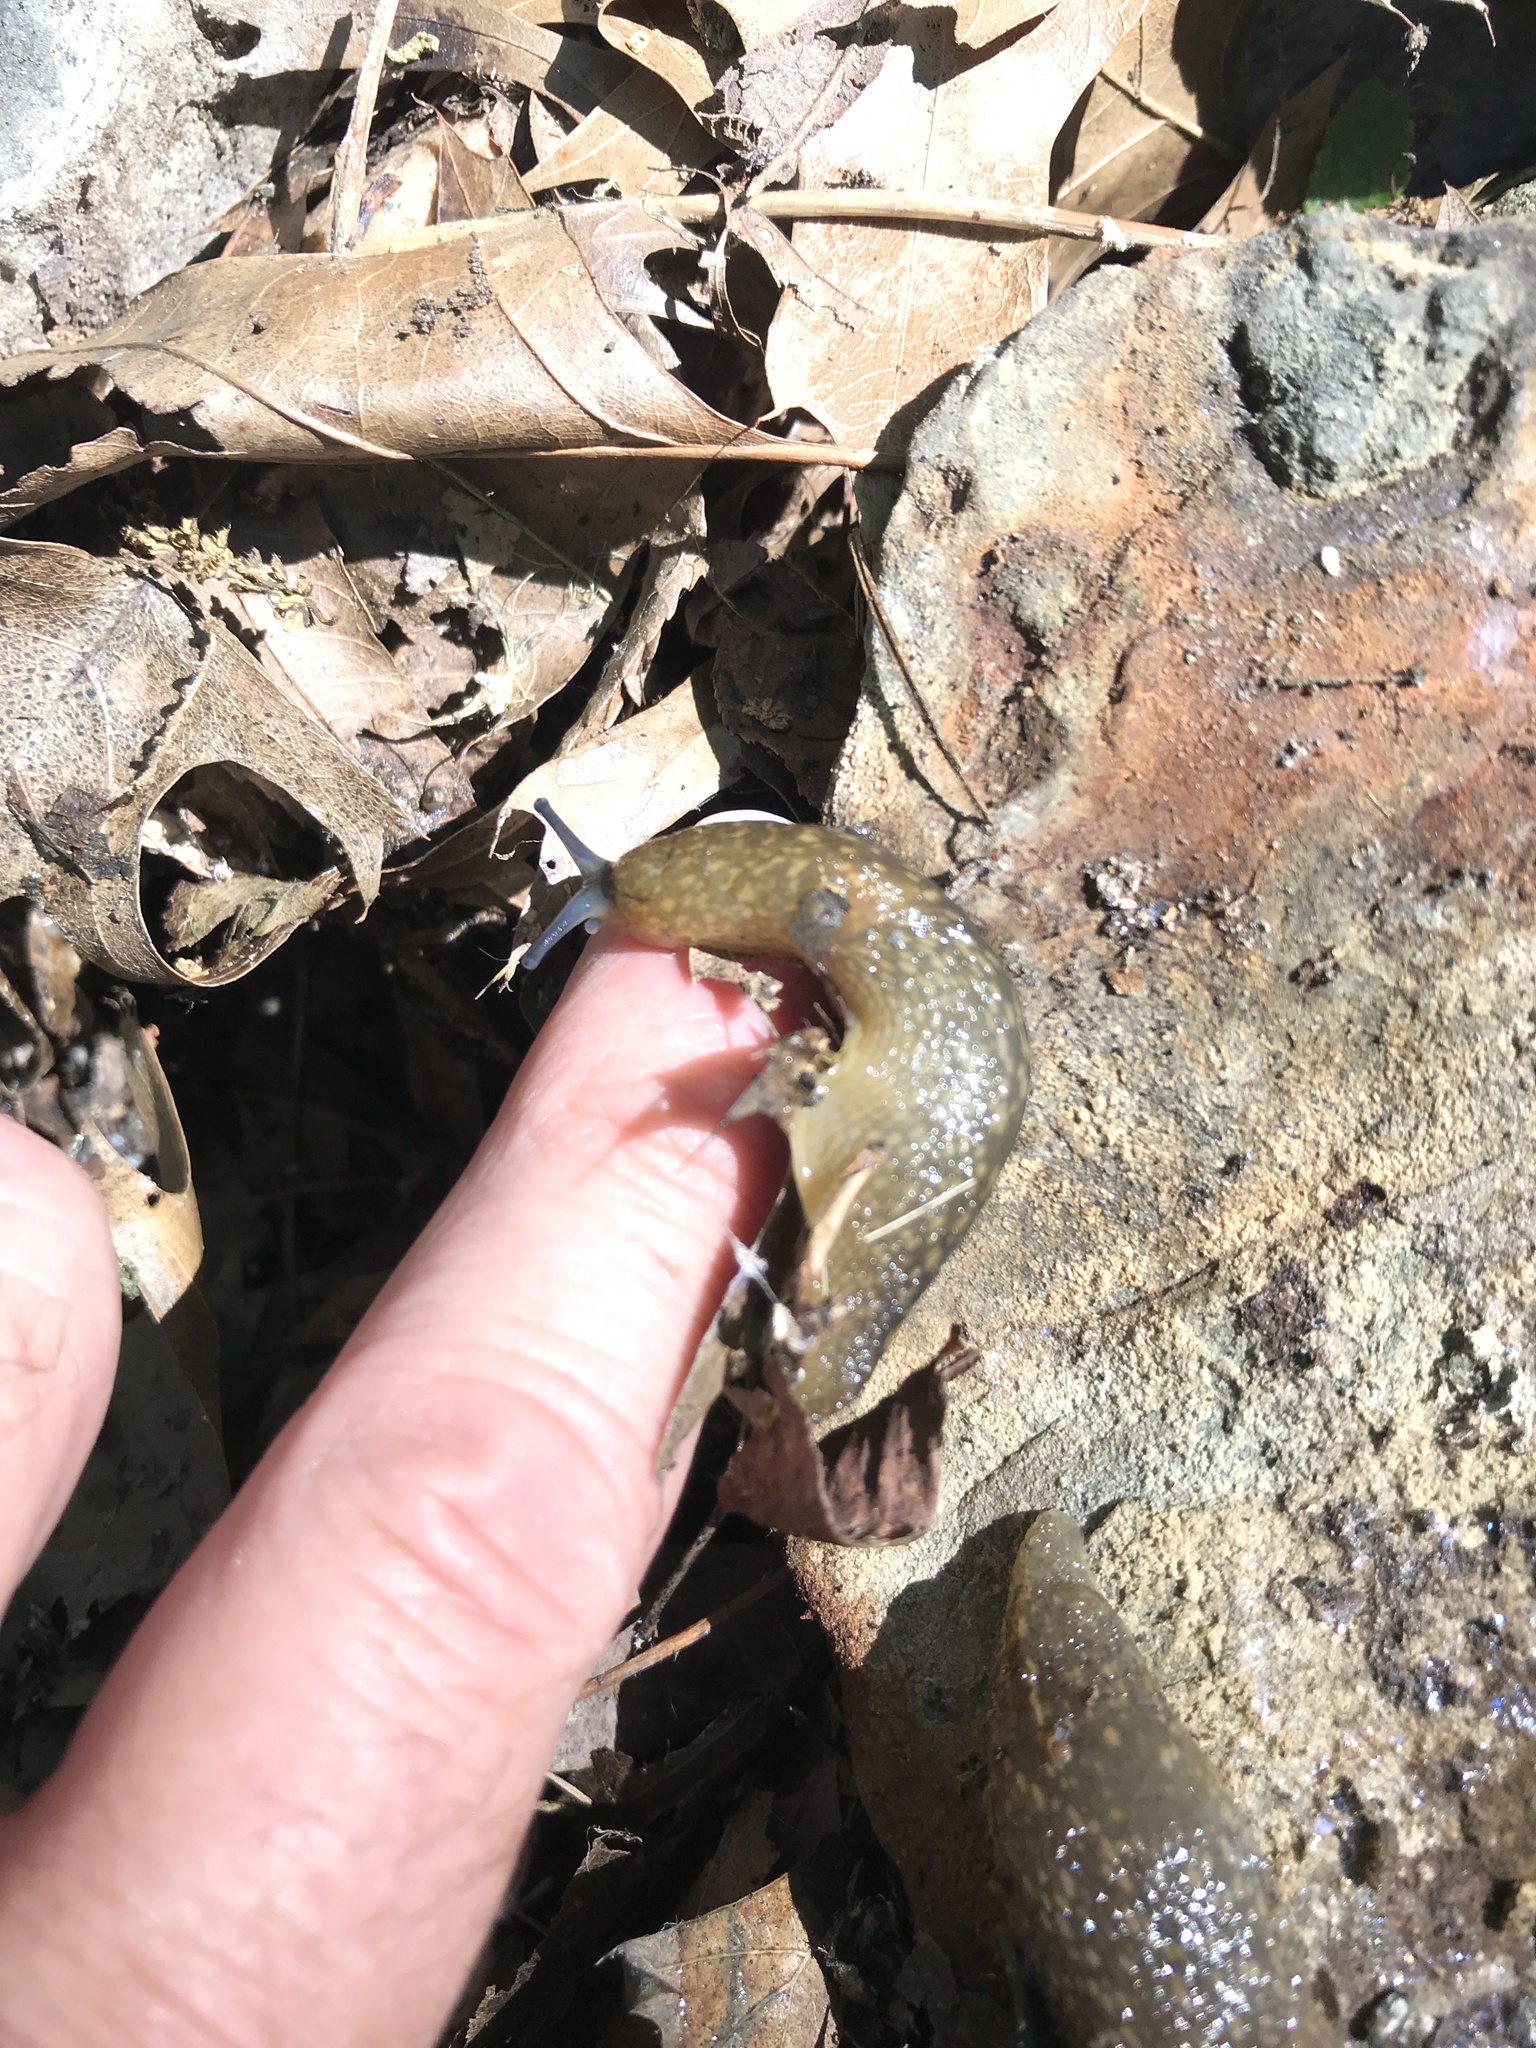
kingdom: Animalia
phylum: Mollusca
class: Gastropoda
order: Stylommatophora
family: Limacidae
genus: Limacus
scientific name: Limacus flavus
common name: Yellow gardenslug
